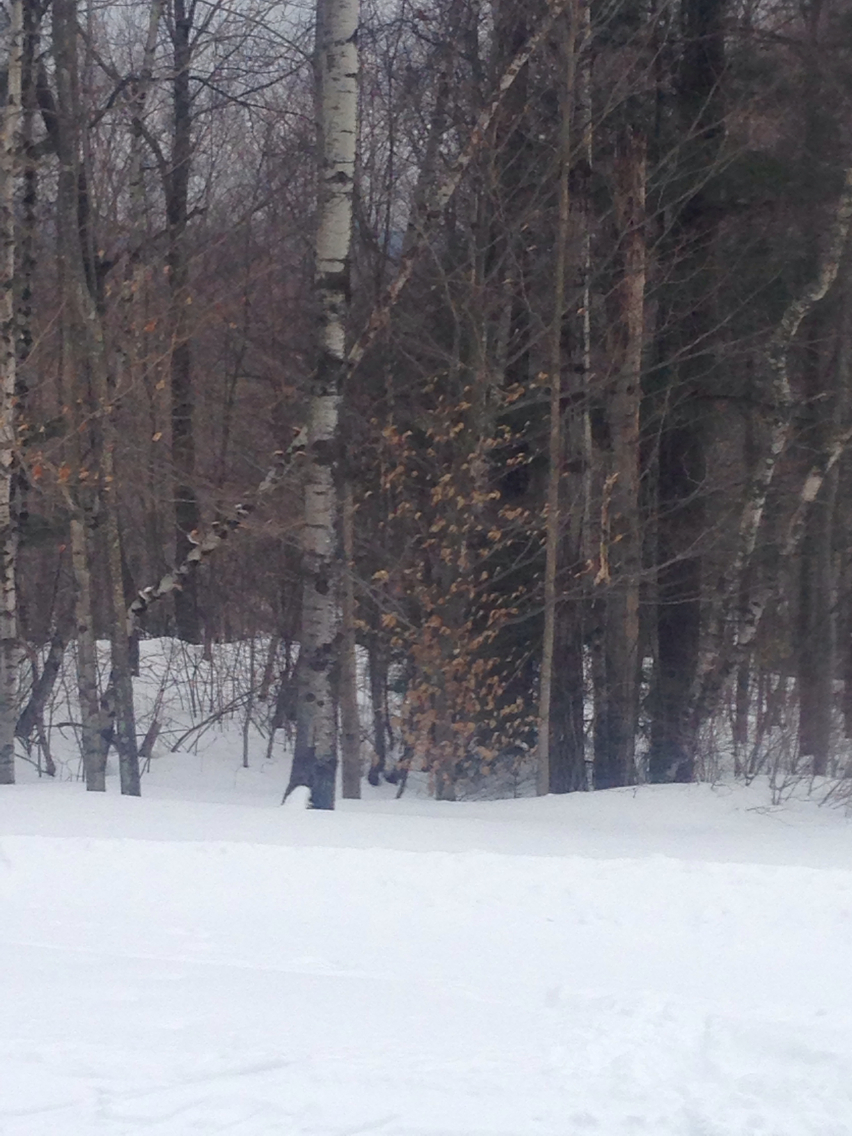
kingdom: Plantae
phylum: Tracheophyta
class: Magnoliopsida
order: Fagales
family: Fagaceae
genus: Fagus
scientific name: Fagus grandifolia
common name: American beech
